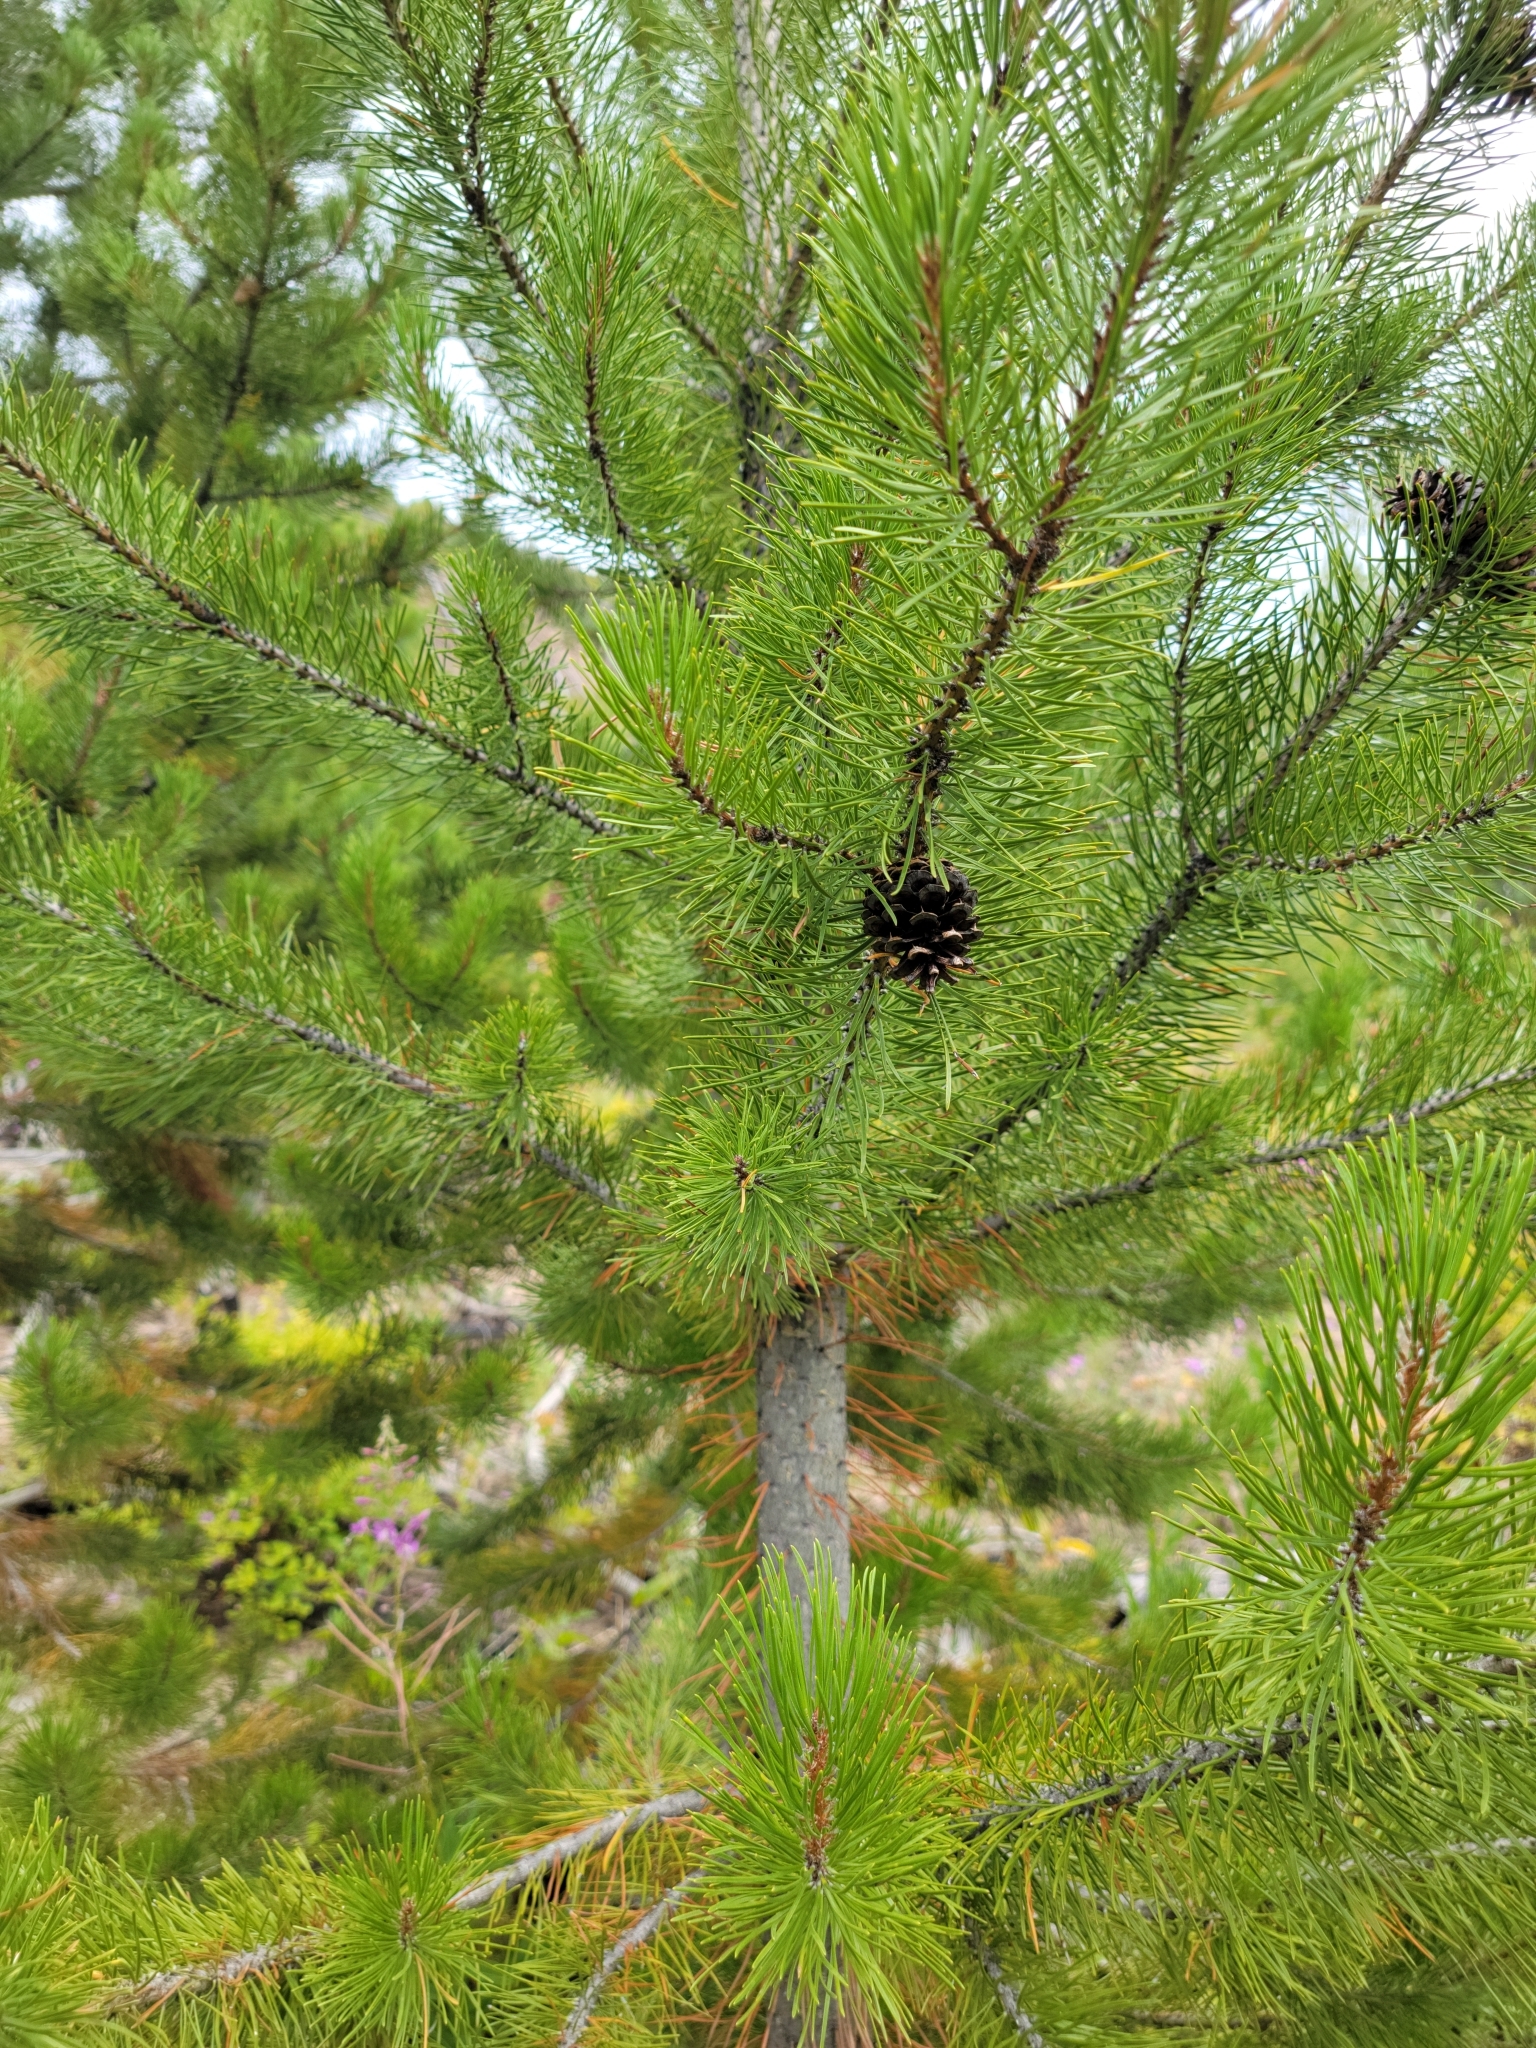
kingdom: Plantae
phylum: Tracheophyta
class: Pinopsida
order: Pinales
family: Pinaceae
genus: Pinus
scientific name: Pinus contorta
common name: Lodgepole pine
